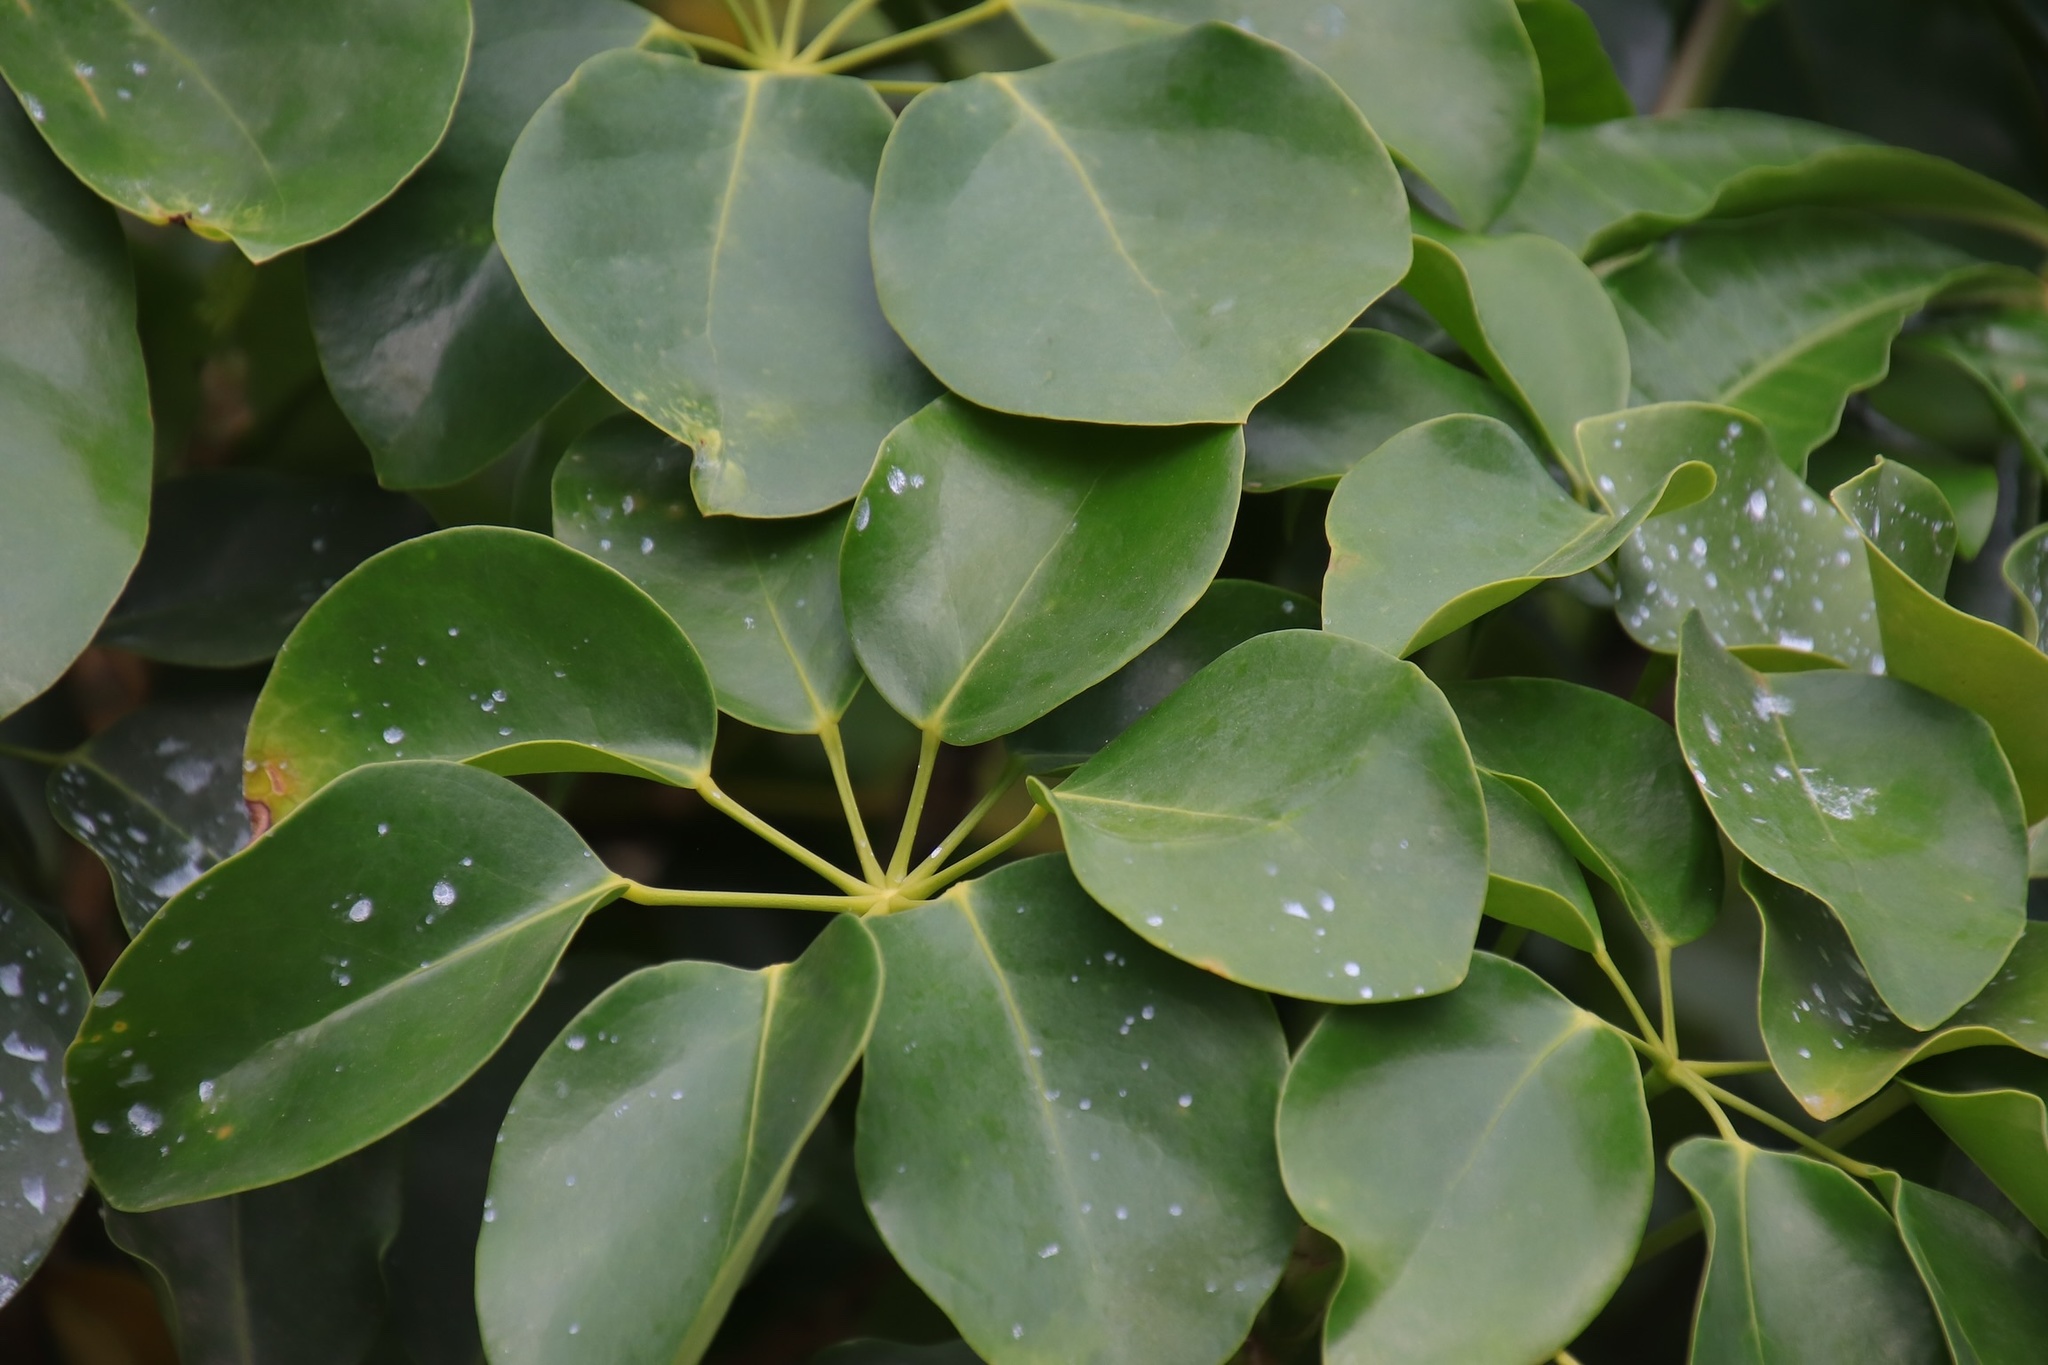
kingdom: Plantae
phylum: Tracheophyta
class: Magnoliopsida
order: Apiales
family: Araliaceae
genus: Heptapleurum
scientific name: Heptapleurum arboricola
